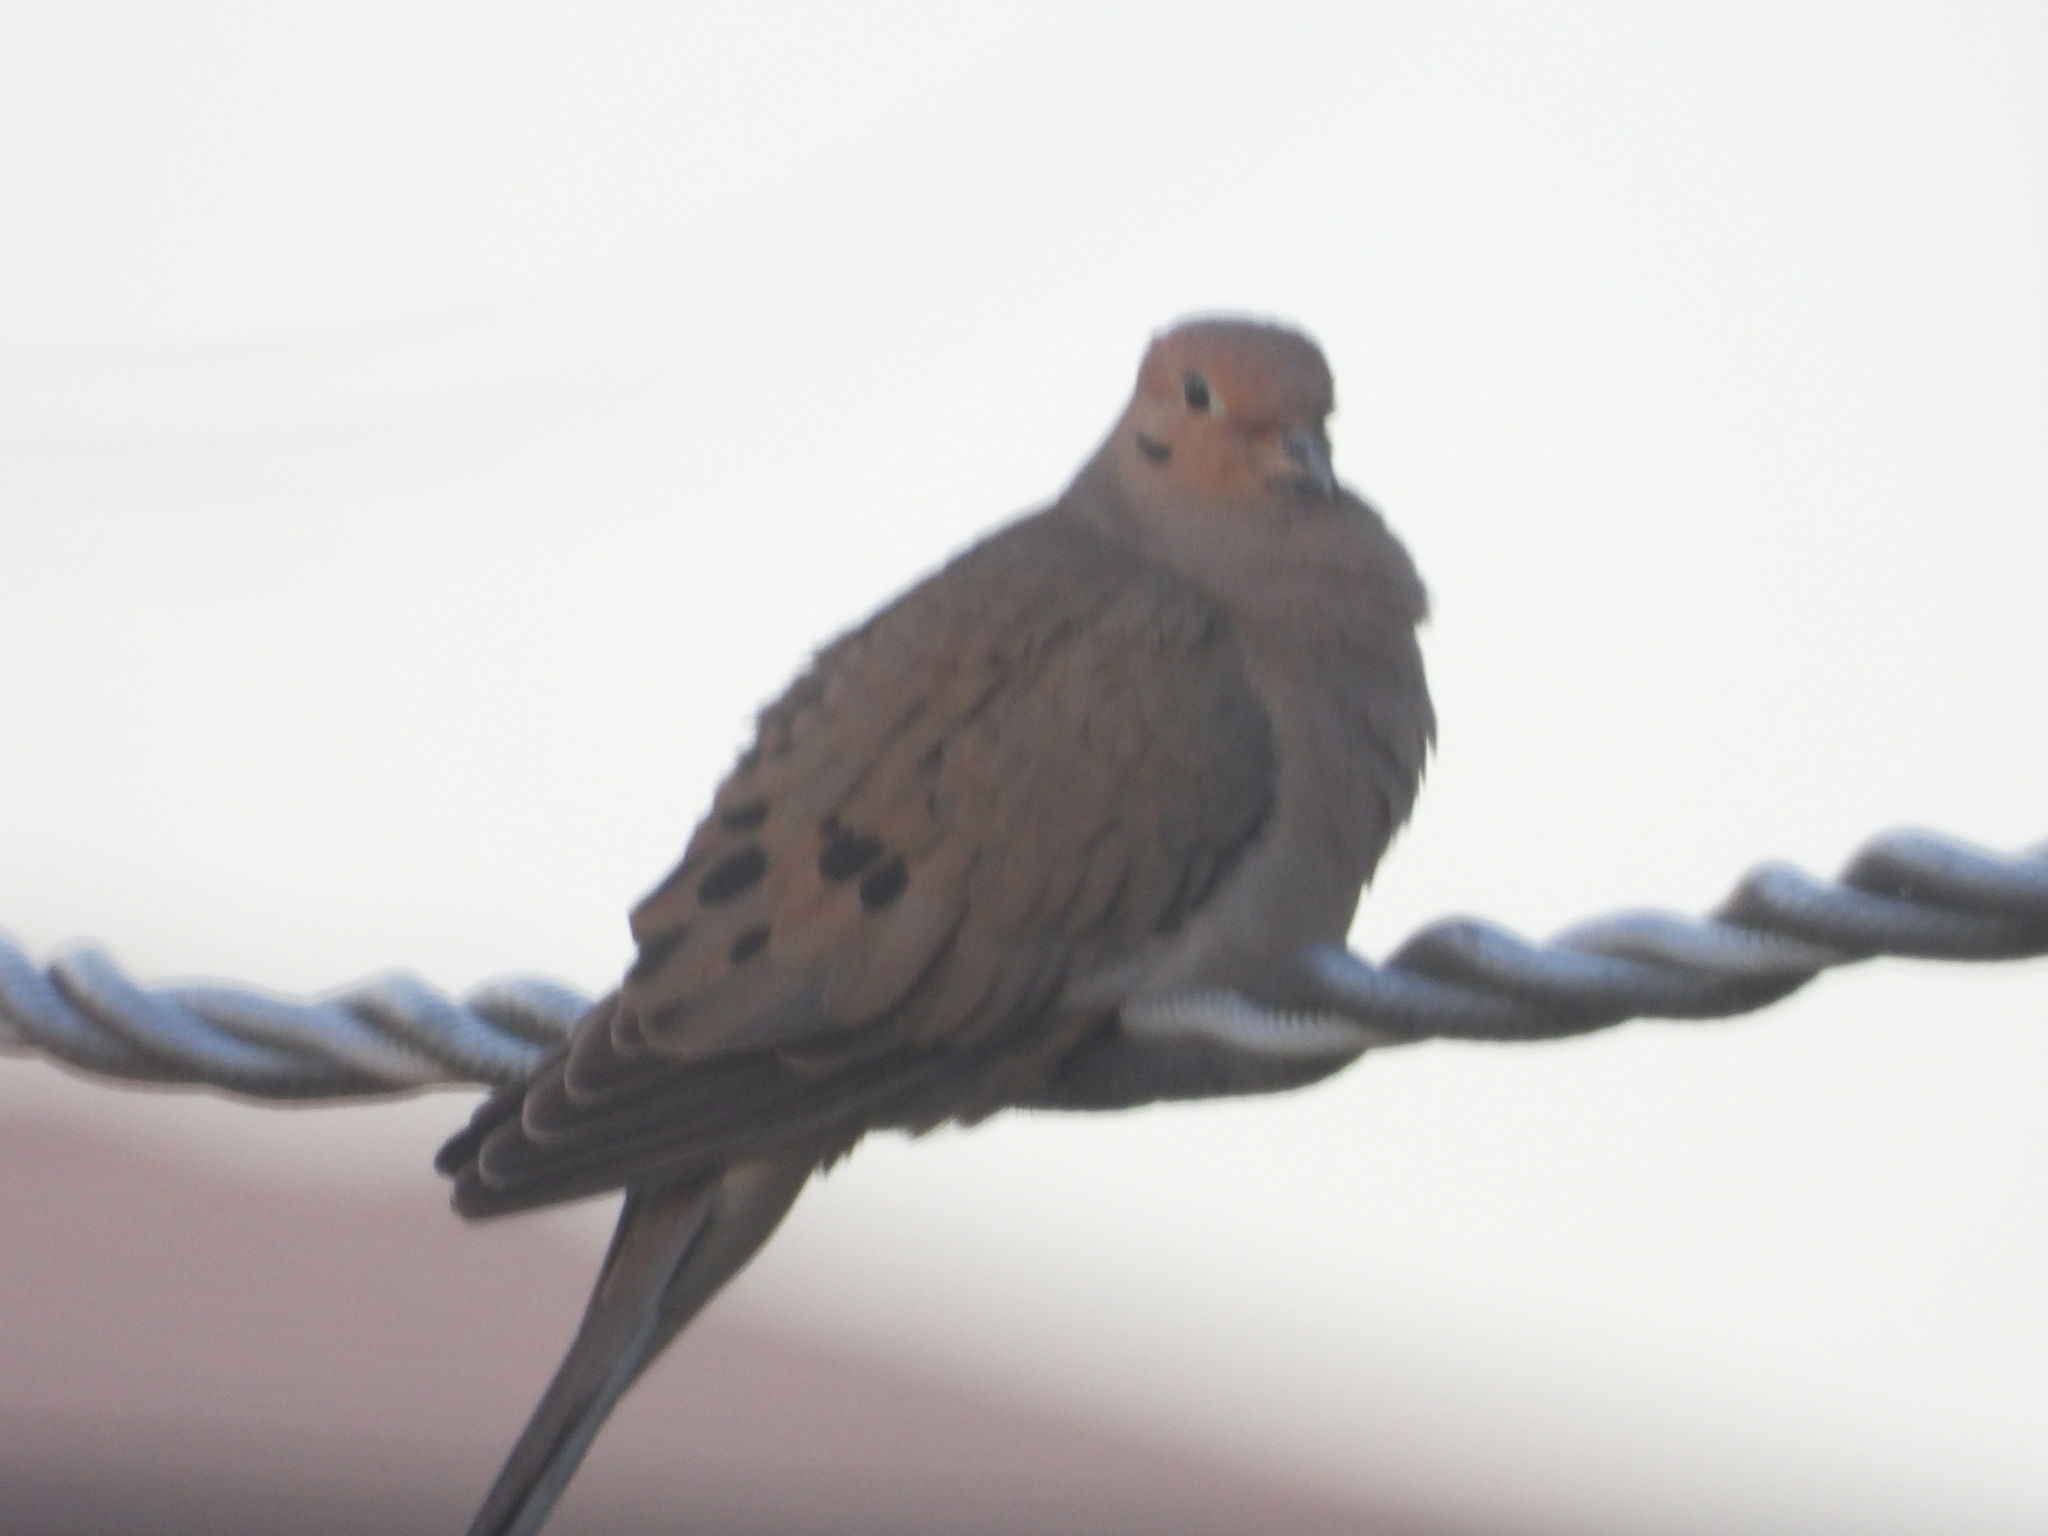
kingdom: Animalia
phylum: Chordata
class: Aves
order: Columbiformes
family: Columbidae
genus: Zenaida
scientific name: Zenaida macroura
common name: Mourning dove
